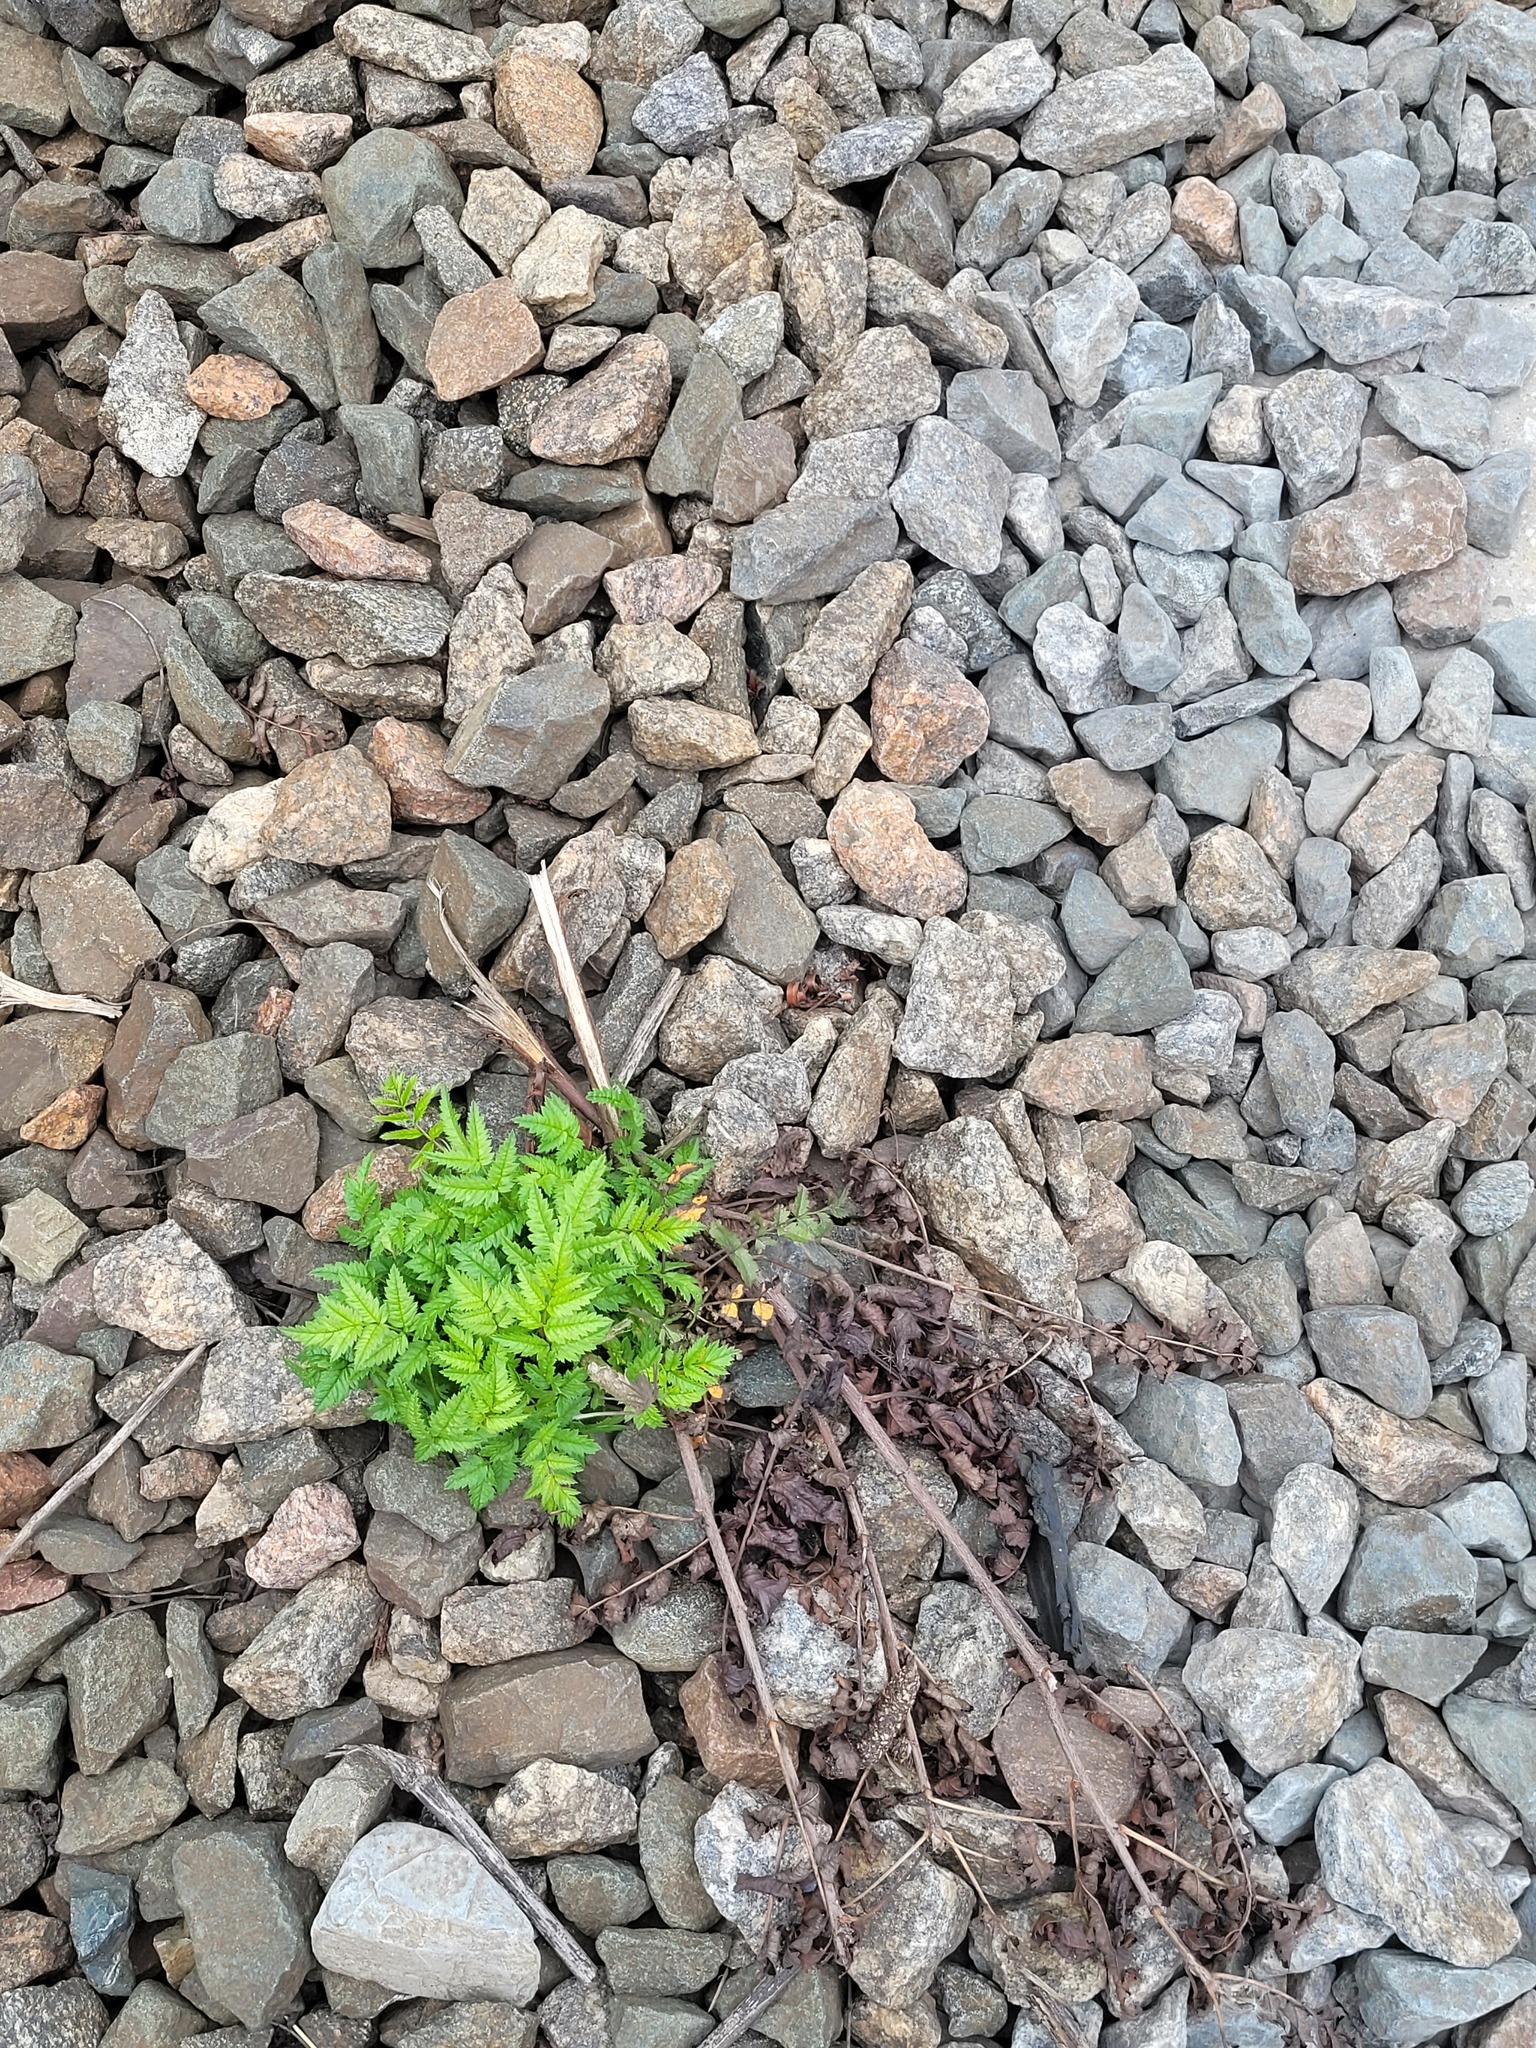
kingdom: Plantae
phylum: Tracheophyta
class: Magnoliopsida
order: Rosales
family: Rosaceae
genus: Sorbus
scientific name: Sorbus aucuparia
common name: Rowan
